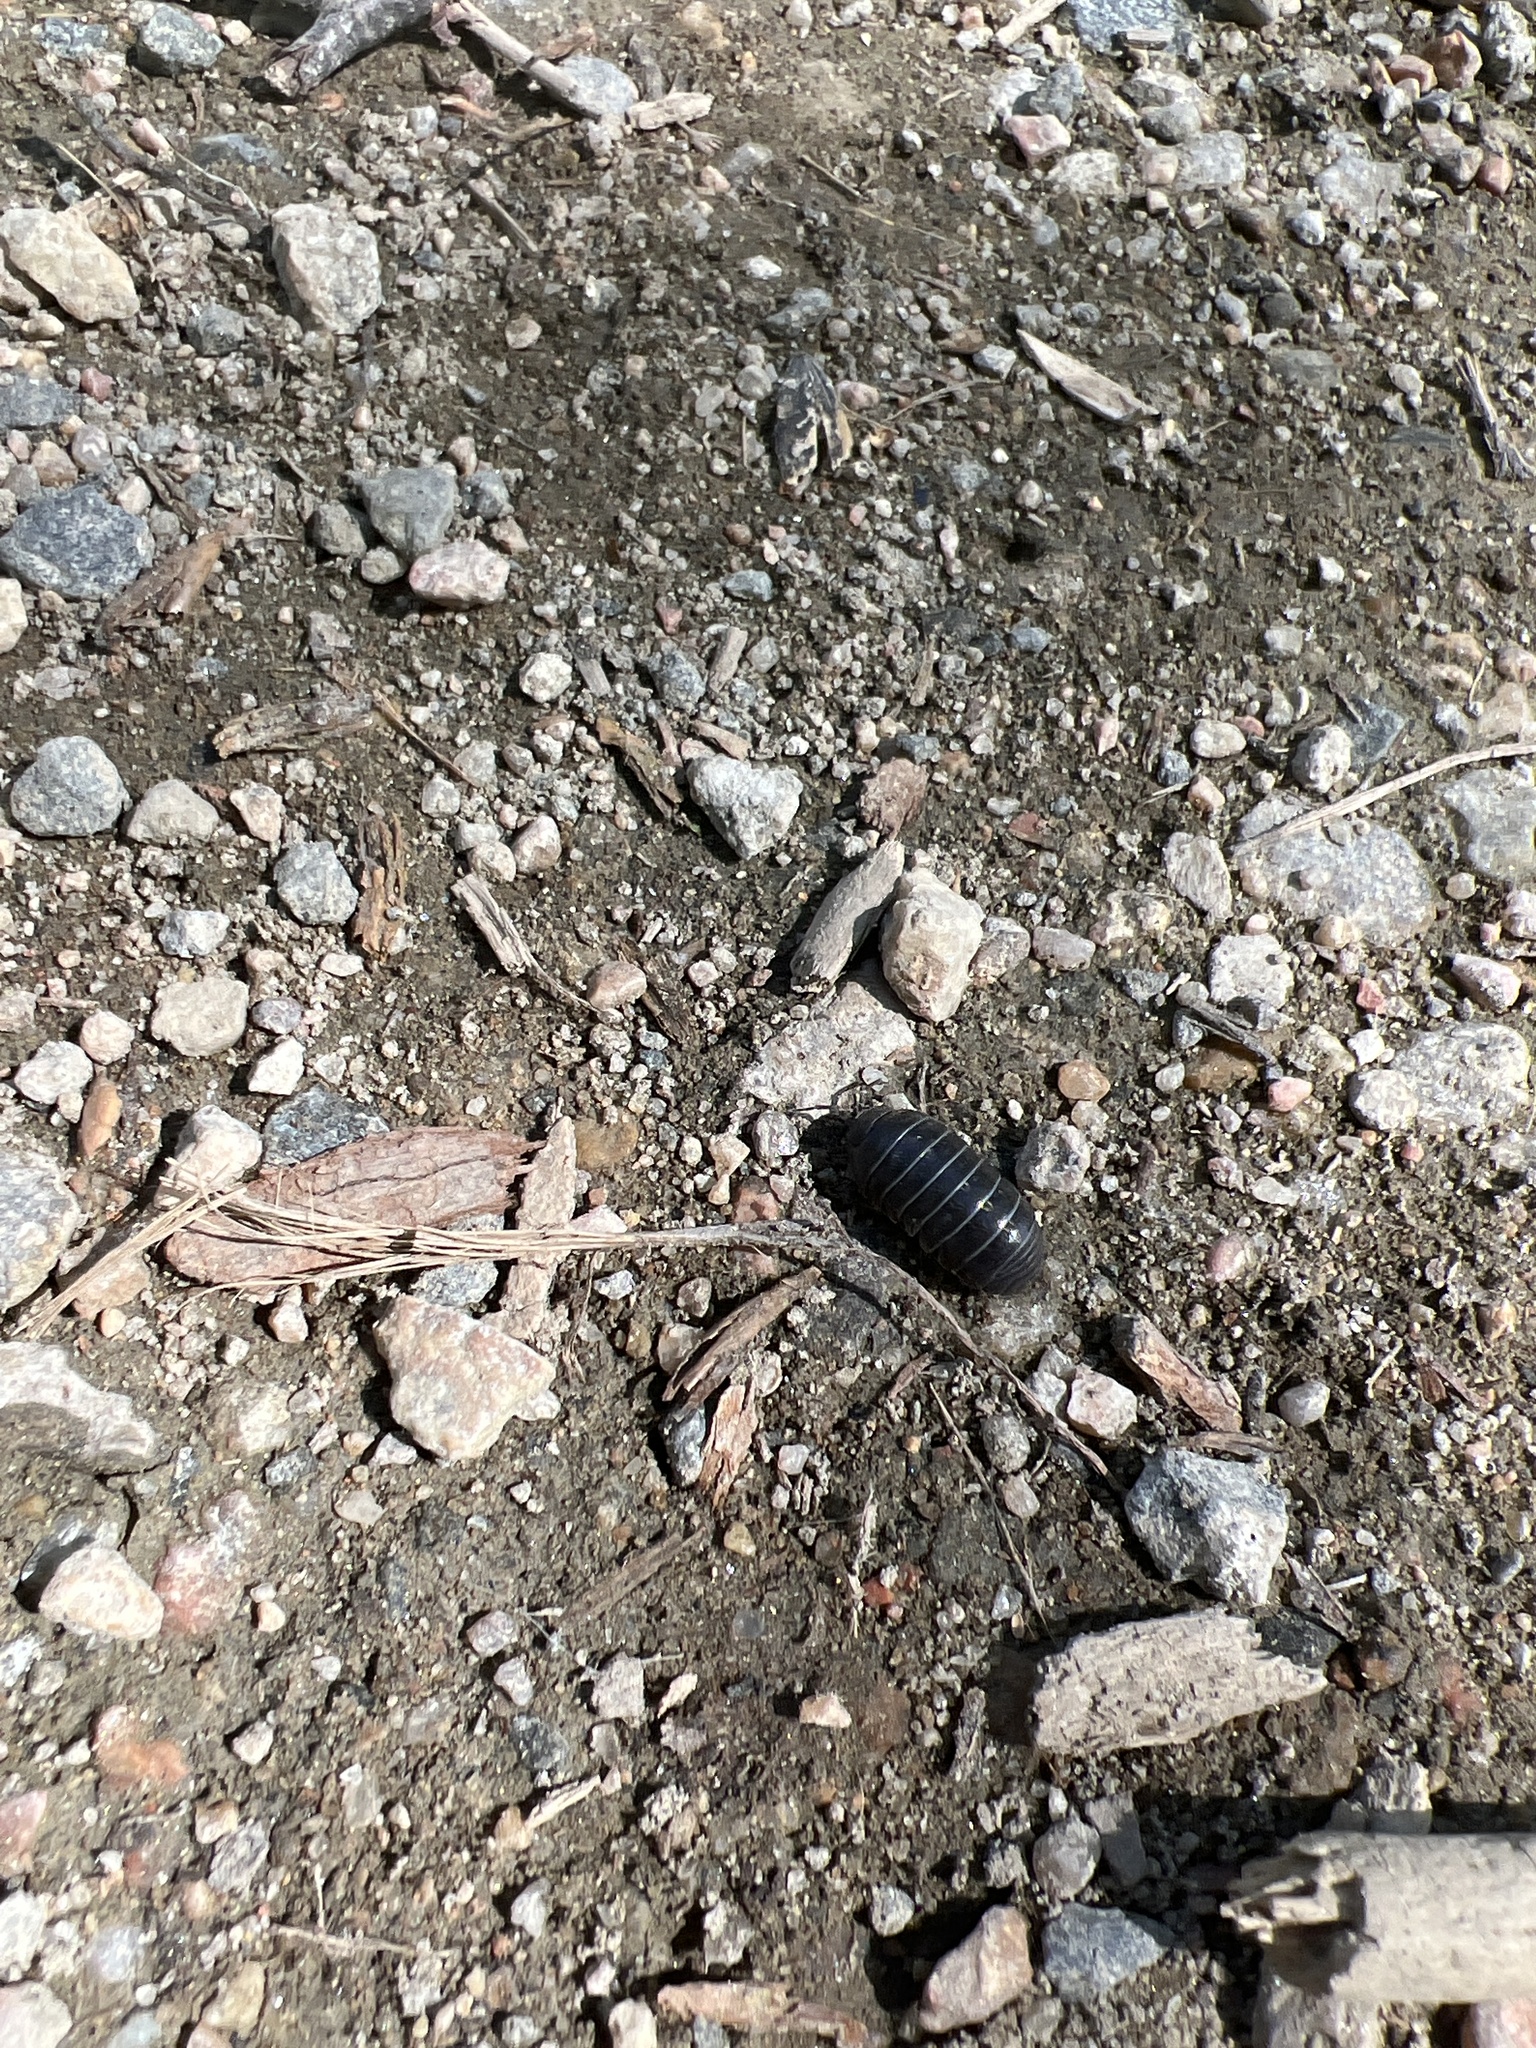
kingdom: Animalia
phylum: Arthropoda
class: Malacostraca
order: Isopoda
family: Armadillidiidae
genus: Armadillidium
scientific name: Armadillidium vulgare
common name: Common pill woodlouse
